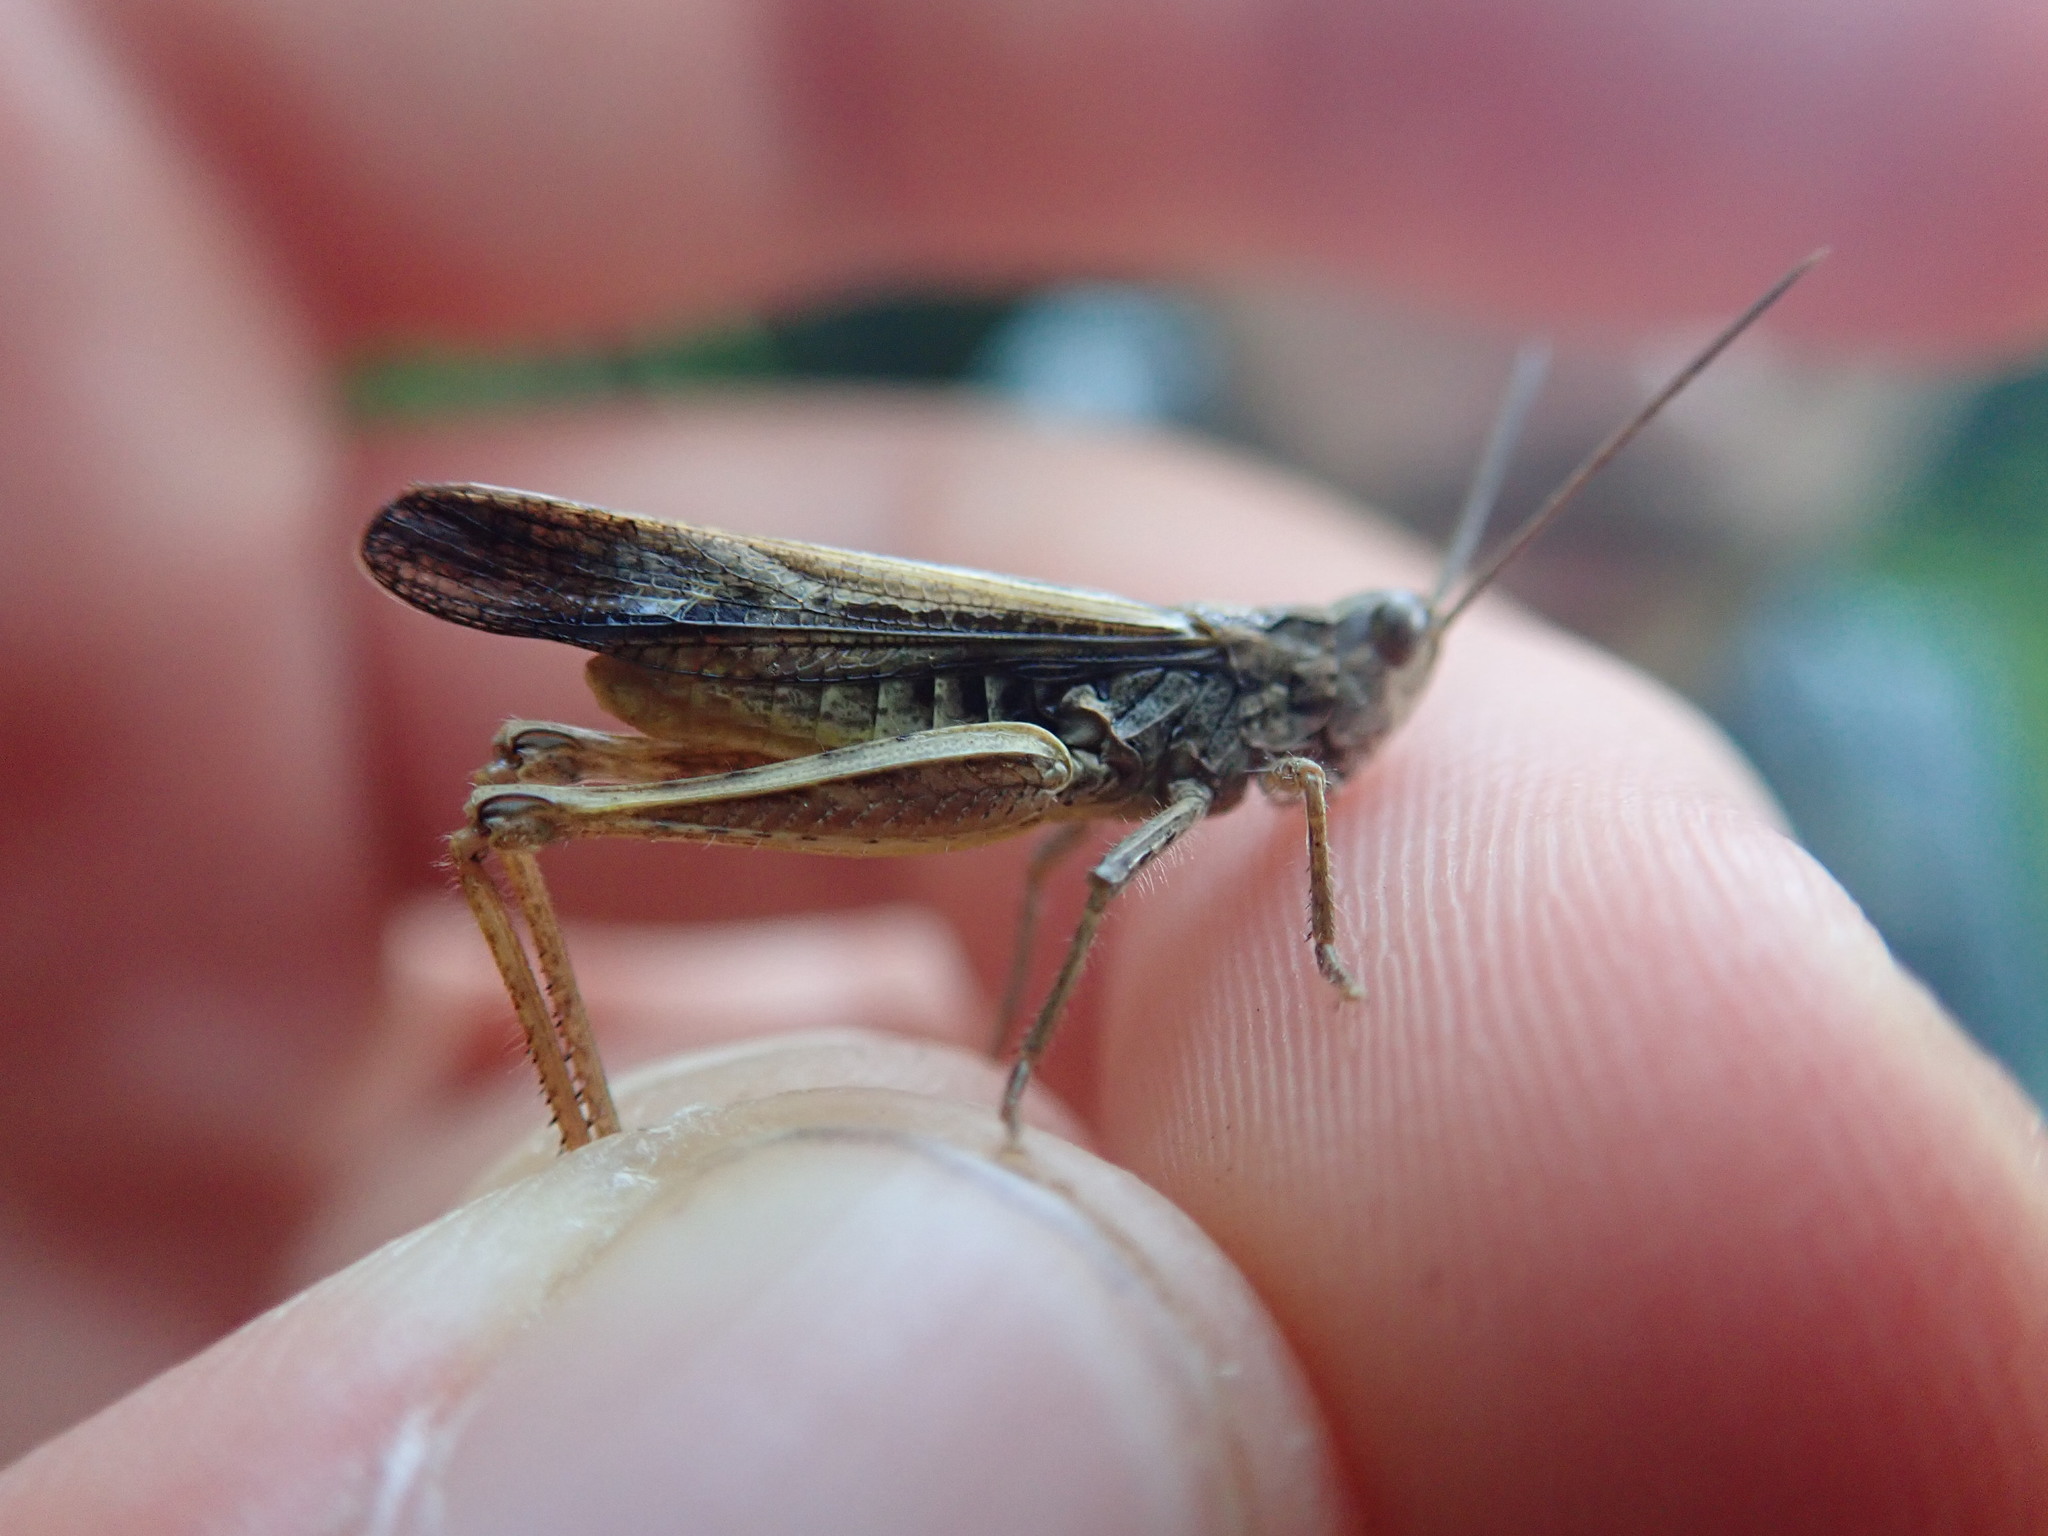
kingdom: Animalia
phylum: Arthropoda
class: Insecta
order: Orthoptera
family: Acrididae
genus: Chorthippus
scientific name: Chorthippus brunneus
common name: Field grasshopper
